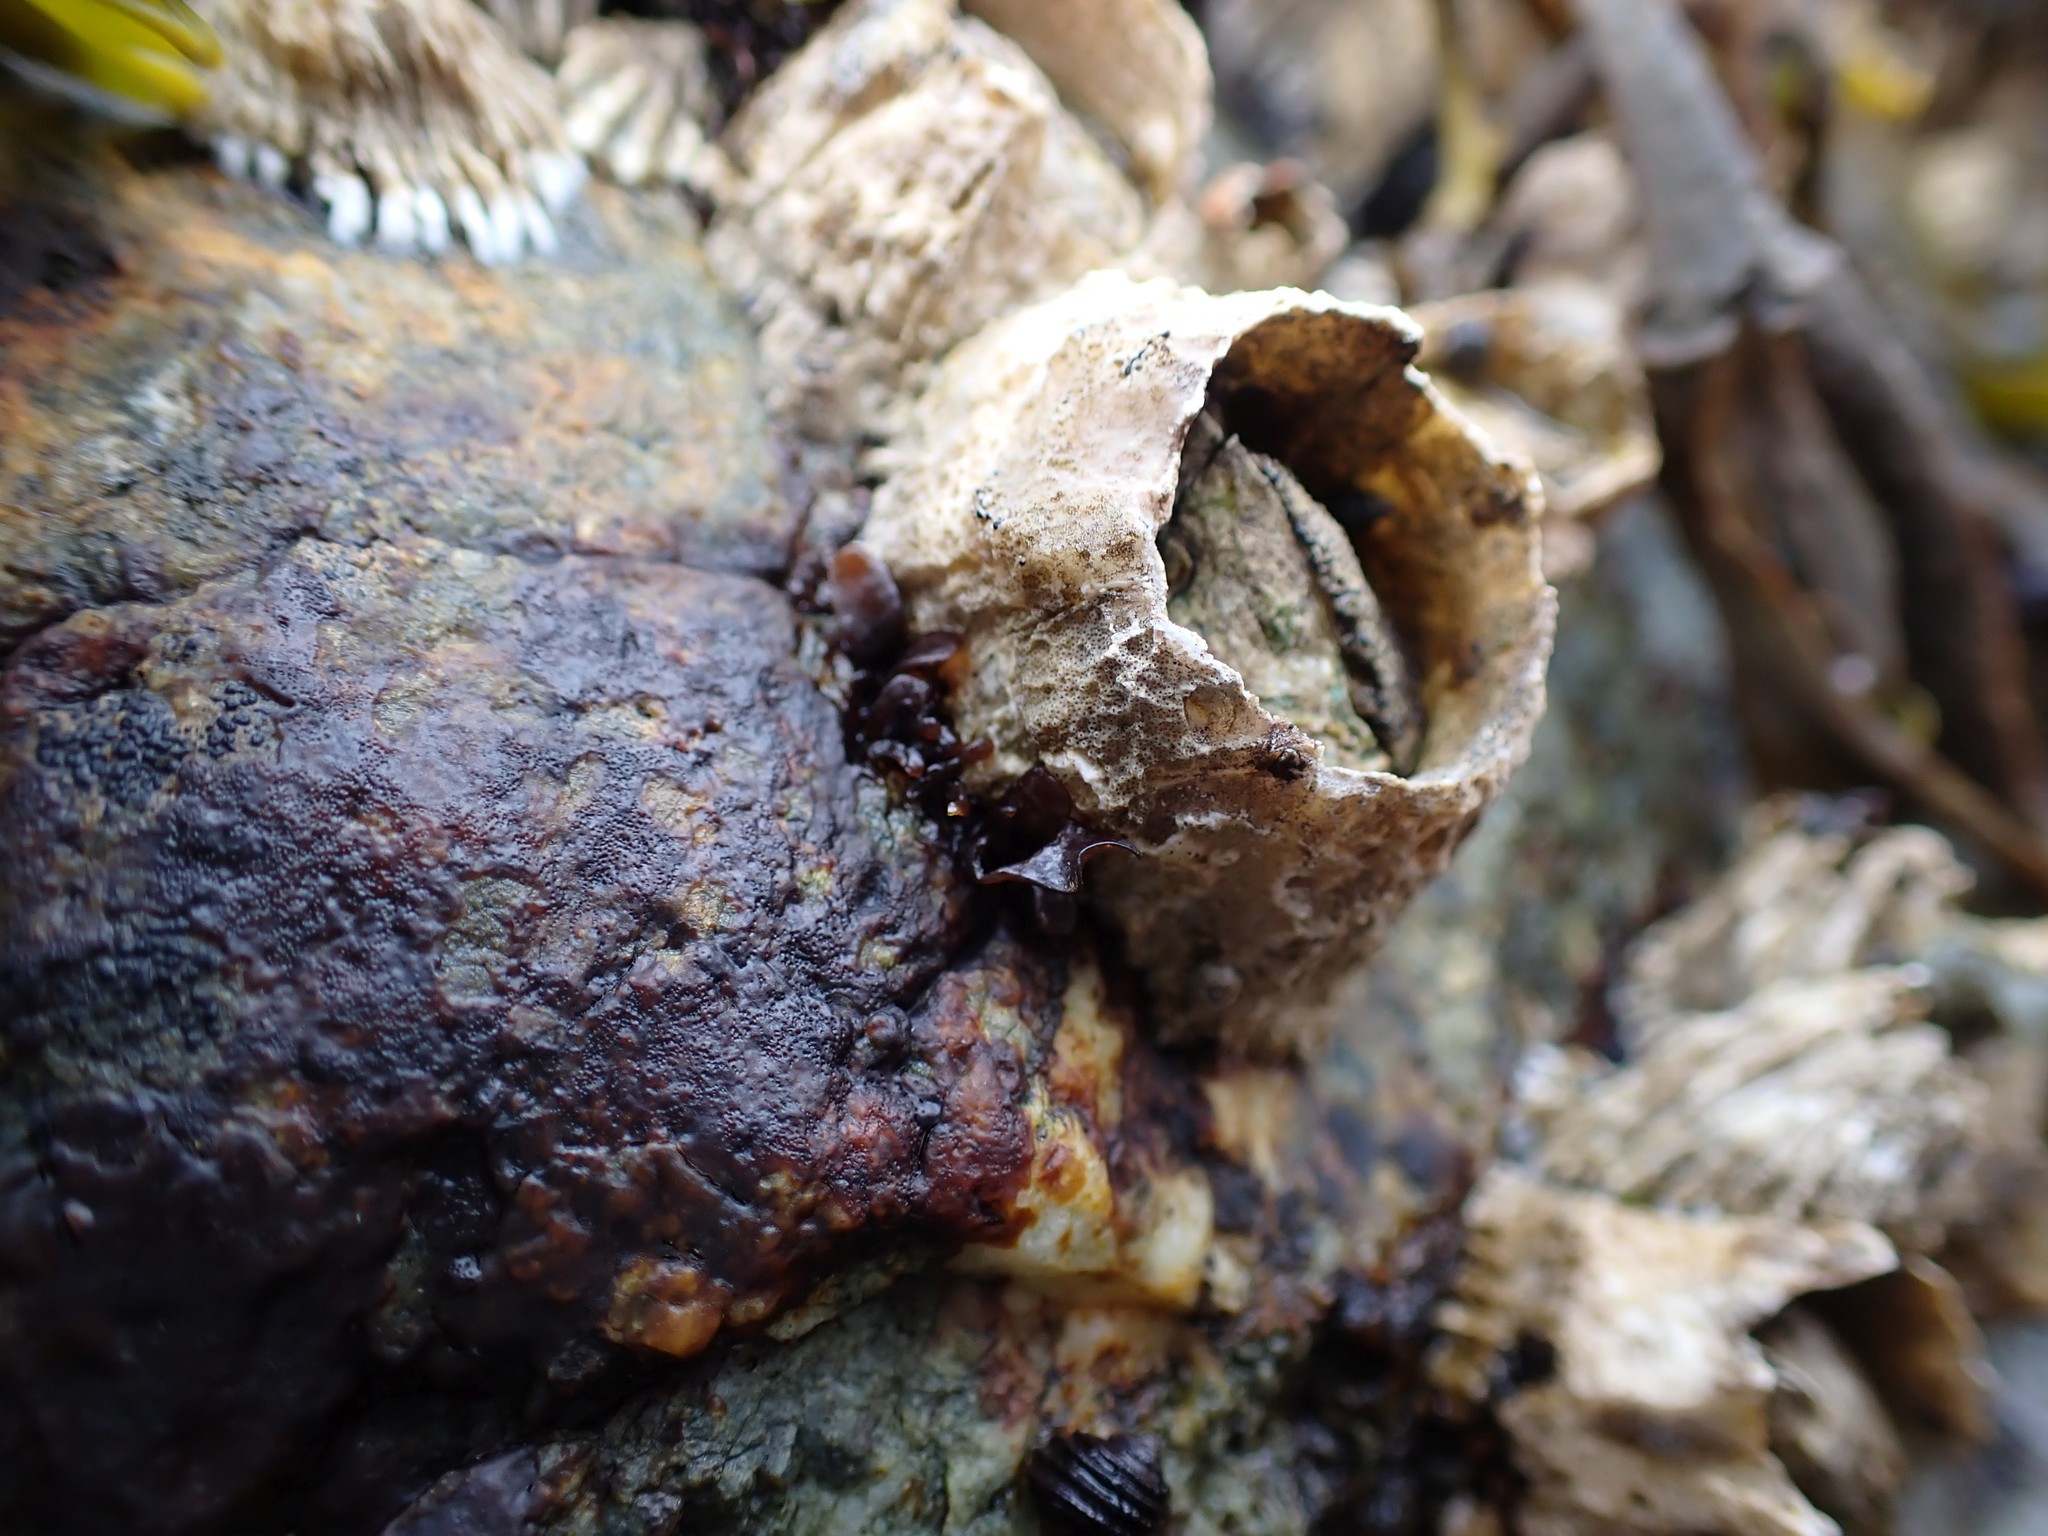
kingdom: Animalia
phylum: Arthropoda
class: Maxillopoda
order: Sessilia
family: Archaeobalanidae
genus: Semibalanus
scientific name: Semibalanus cariosus
